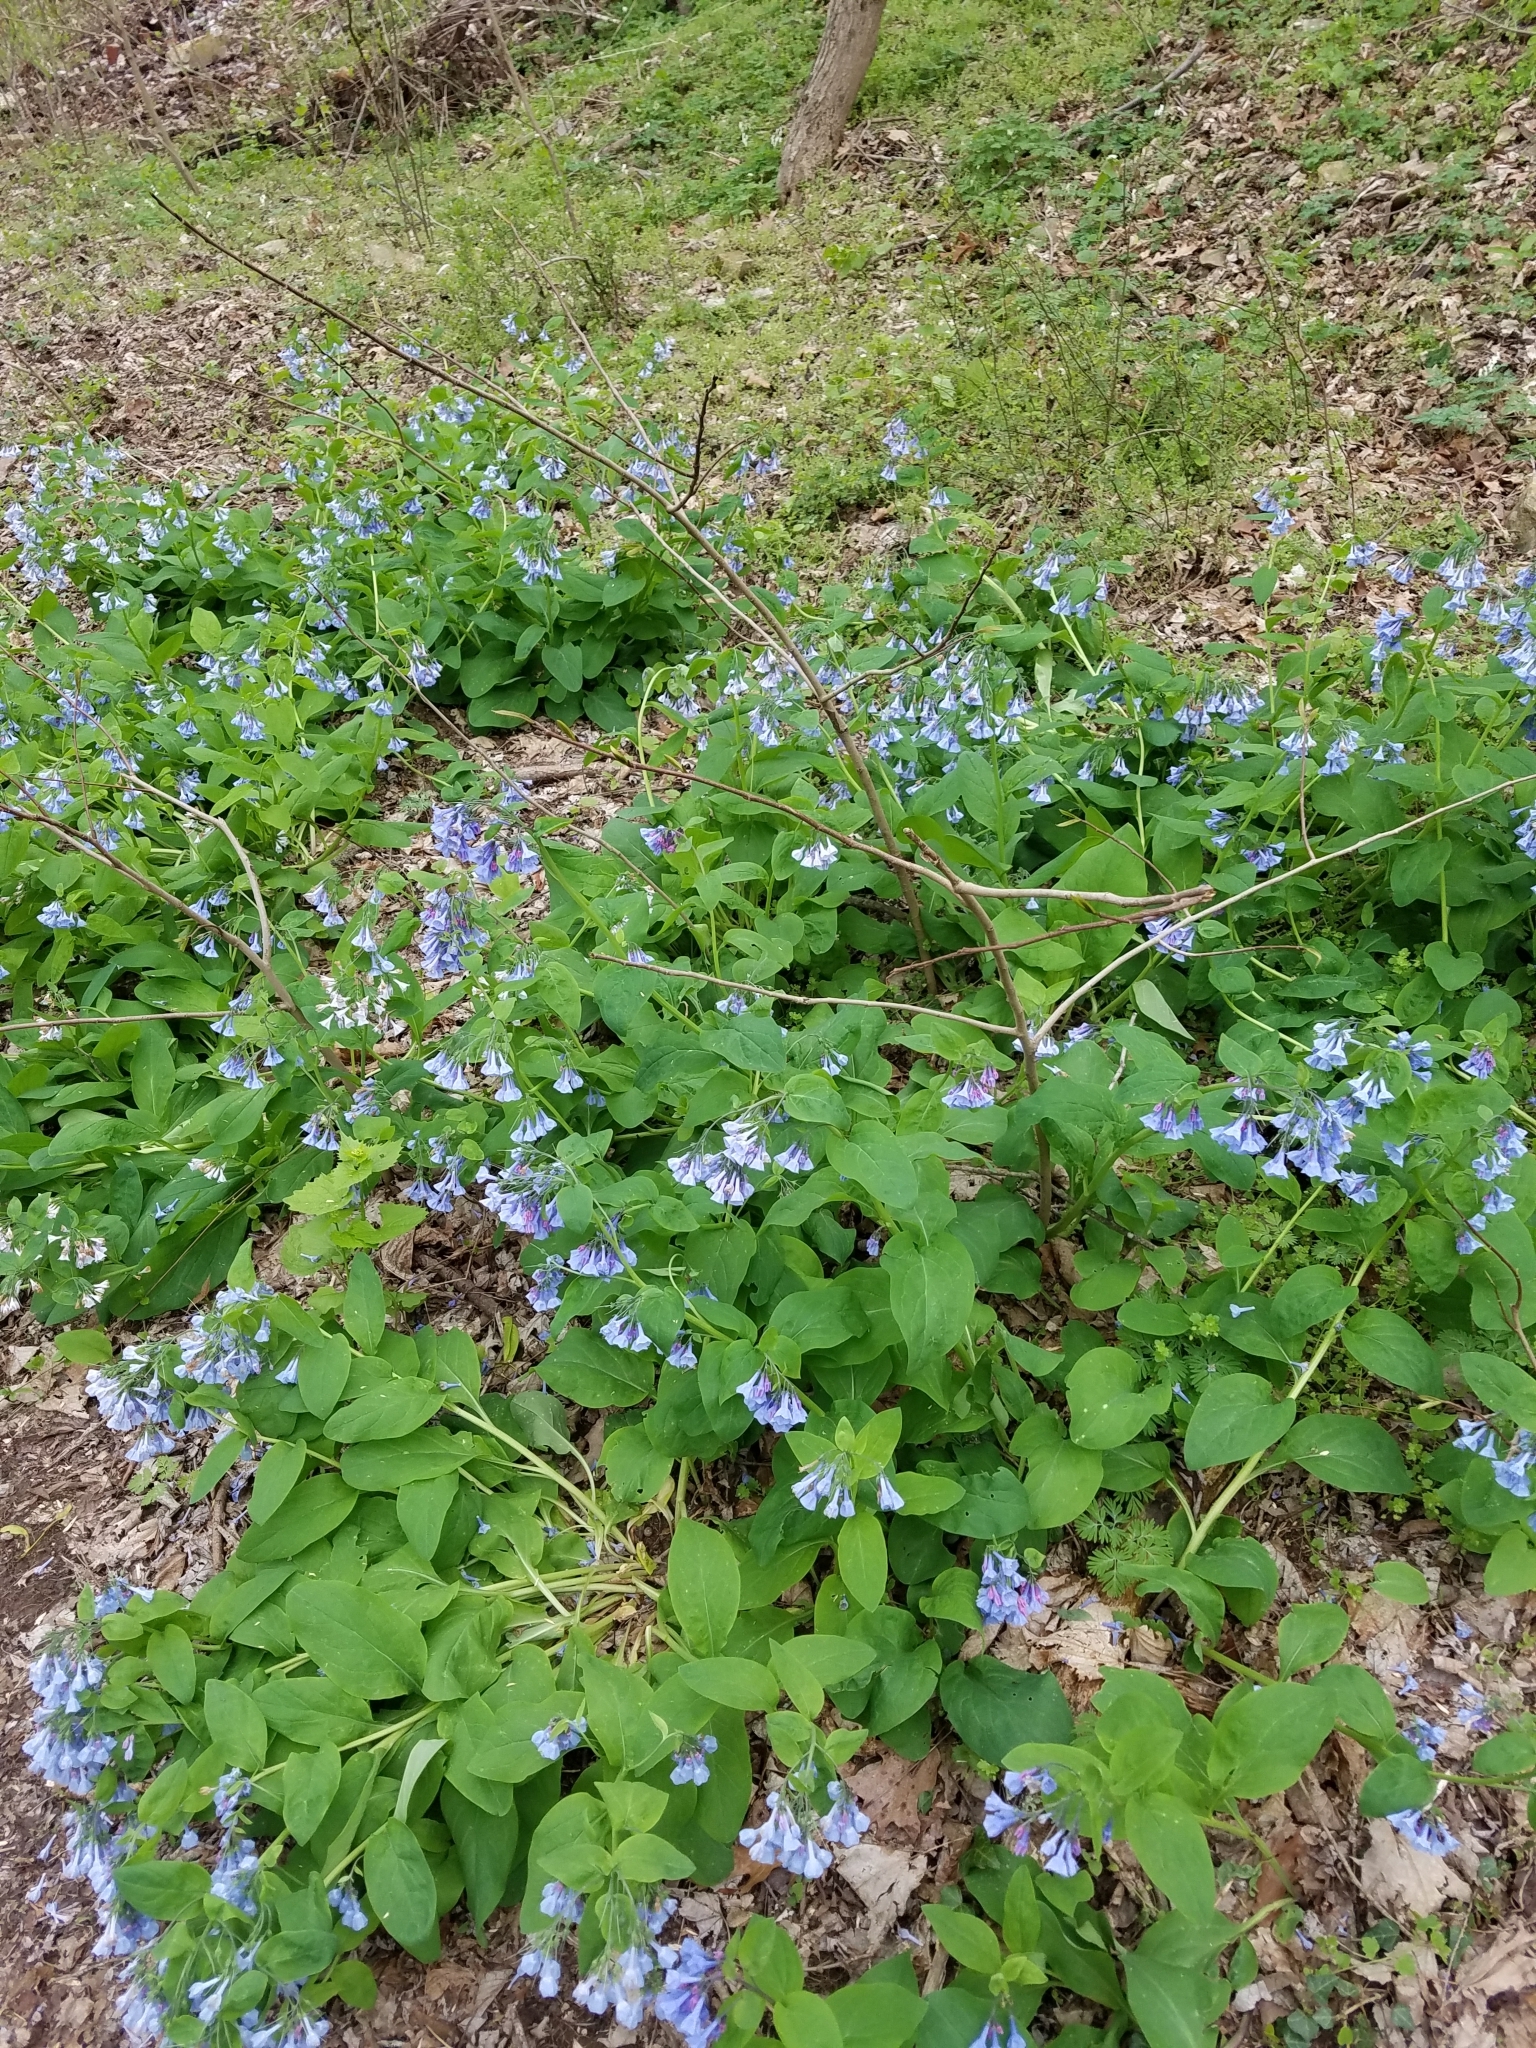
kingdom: Plantae
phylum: Tracheophyta
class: Magnoliopsida
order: Boraginales
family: Boraginaceae
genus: Mertensia
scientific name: Mertensia virginica
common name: Virginia bluebells
